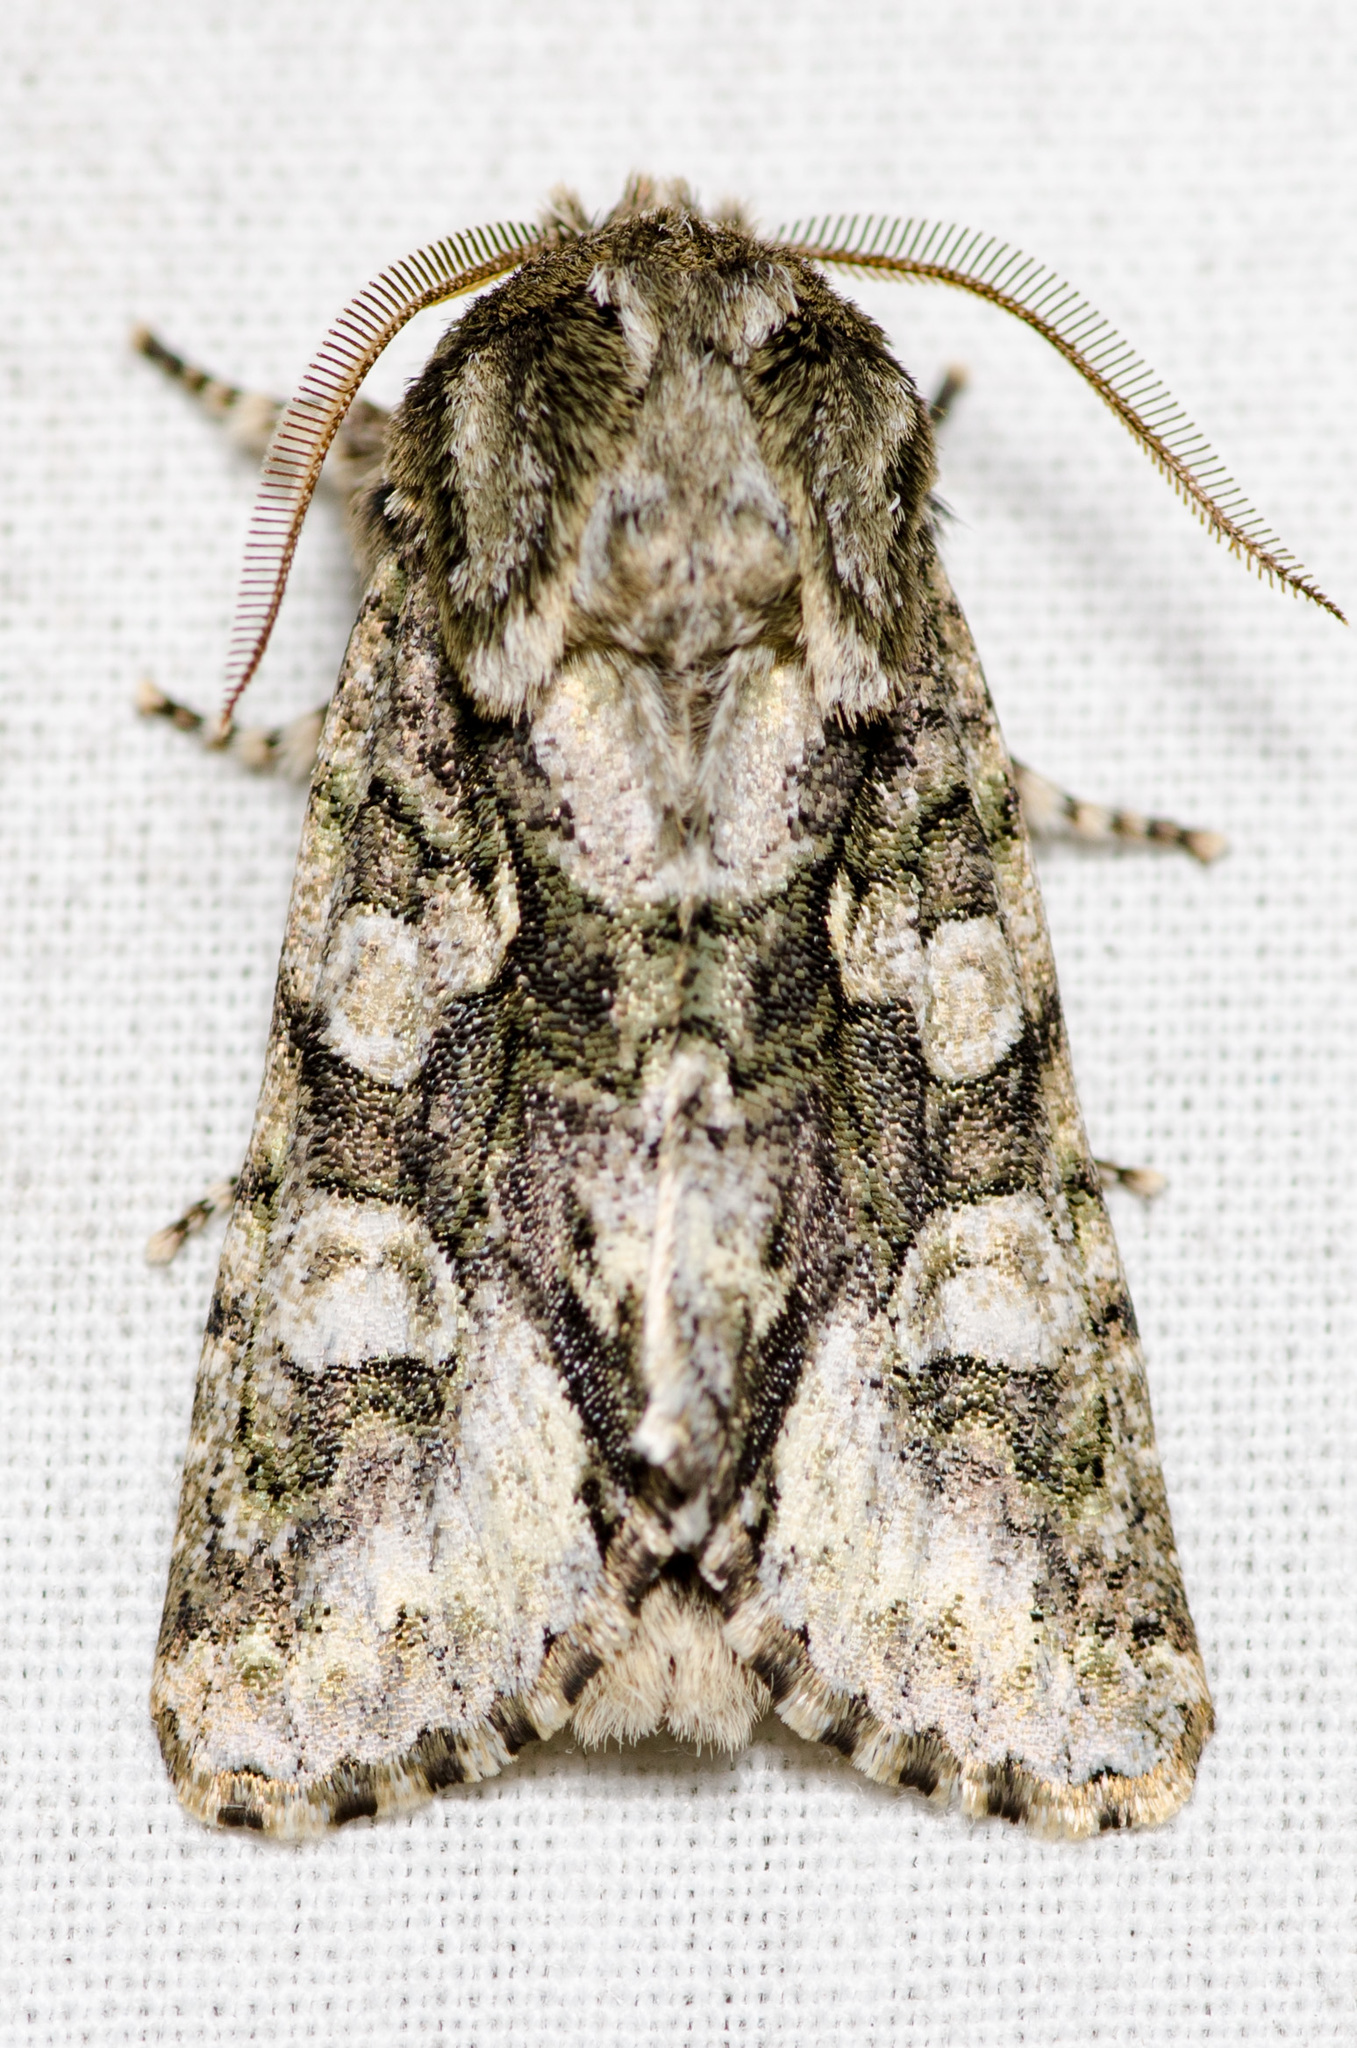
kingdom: Animalia
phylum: Arthropoda
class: Insecta
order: Lepidoptera
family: Noctuidae
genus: Psaphida
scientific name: Psaphida resumens
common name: Figure-eight sallow
